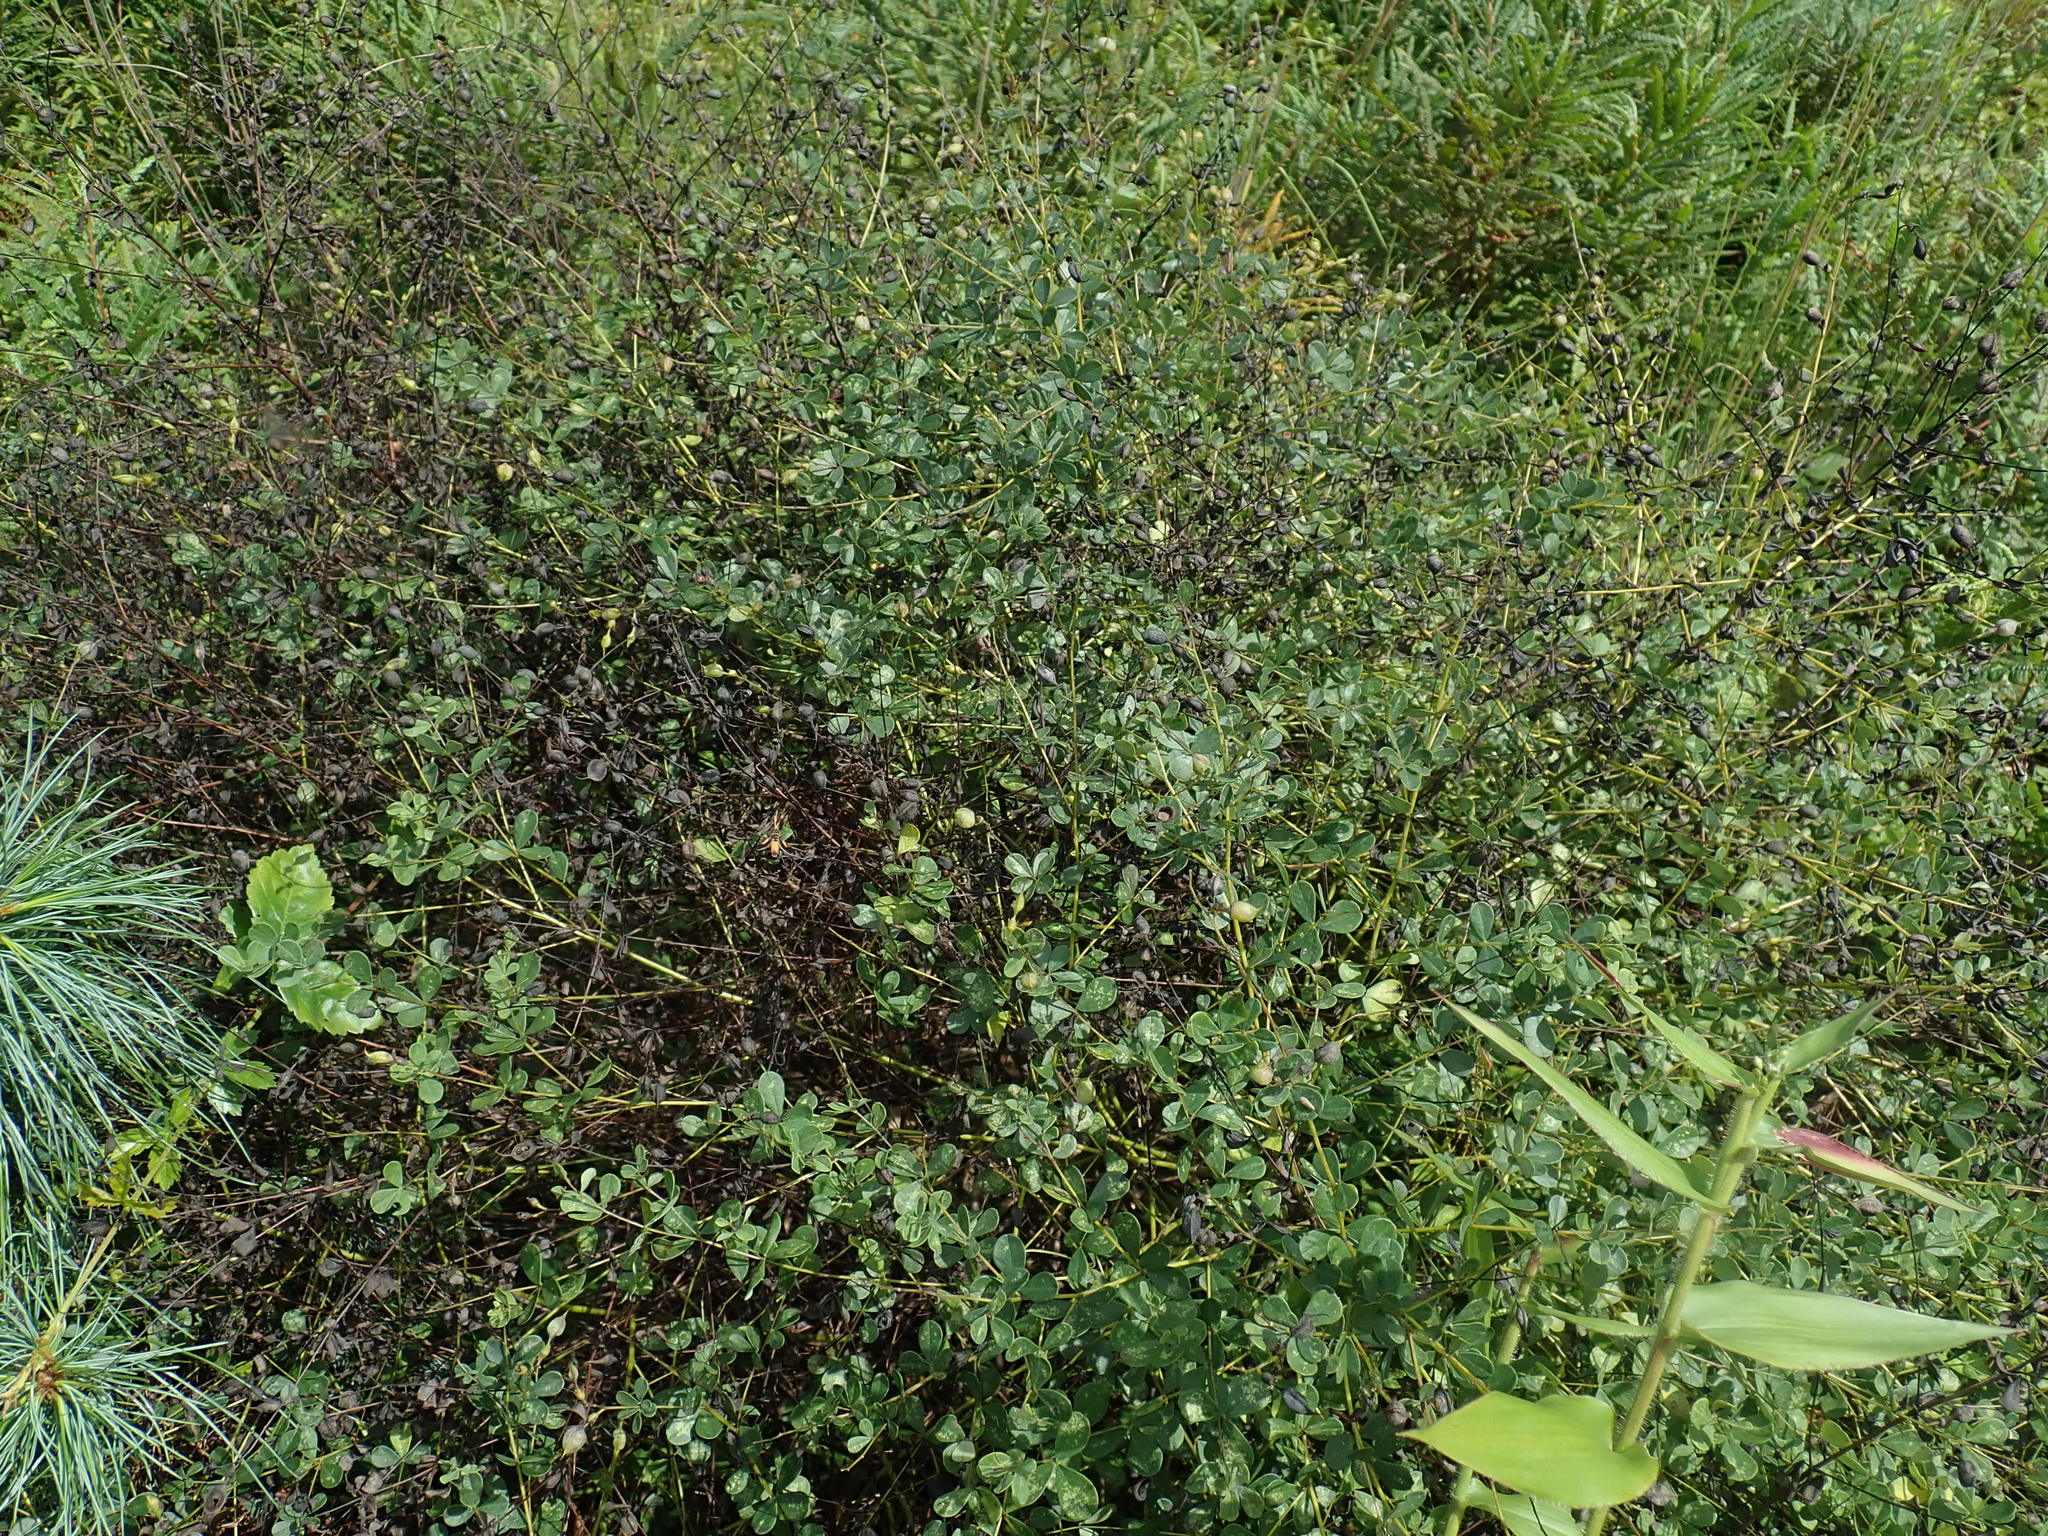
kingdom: Plantae
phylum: Tracheophyta
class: Magnoliopsida
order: Fabales
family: Fabaceae
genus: Baptisia
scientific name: Baptisia tinctoria
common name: Wild indigo
